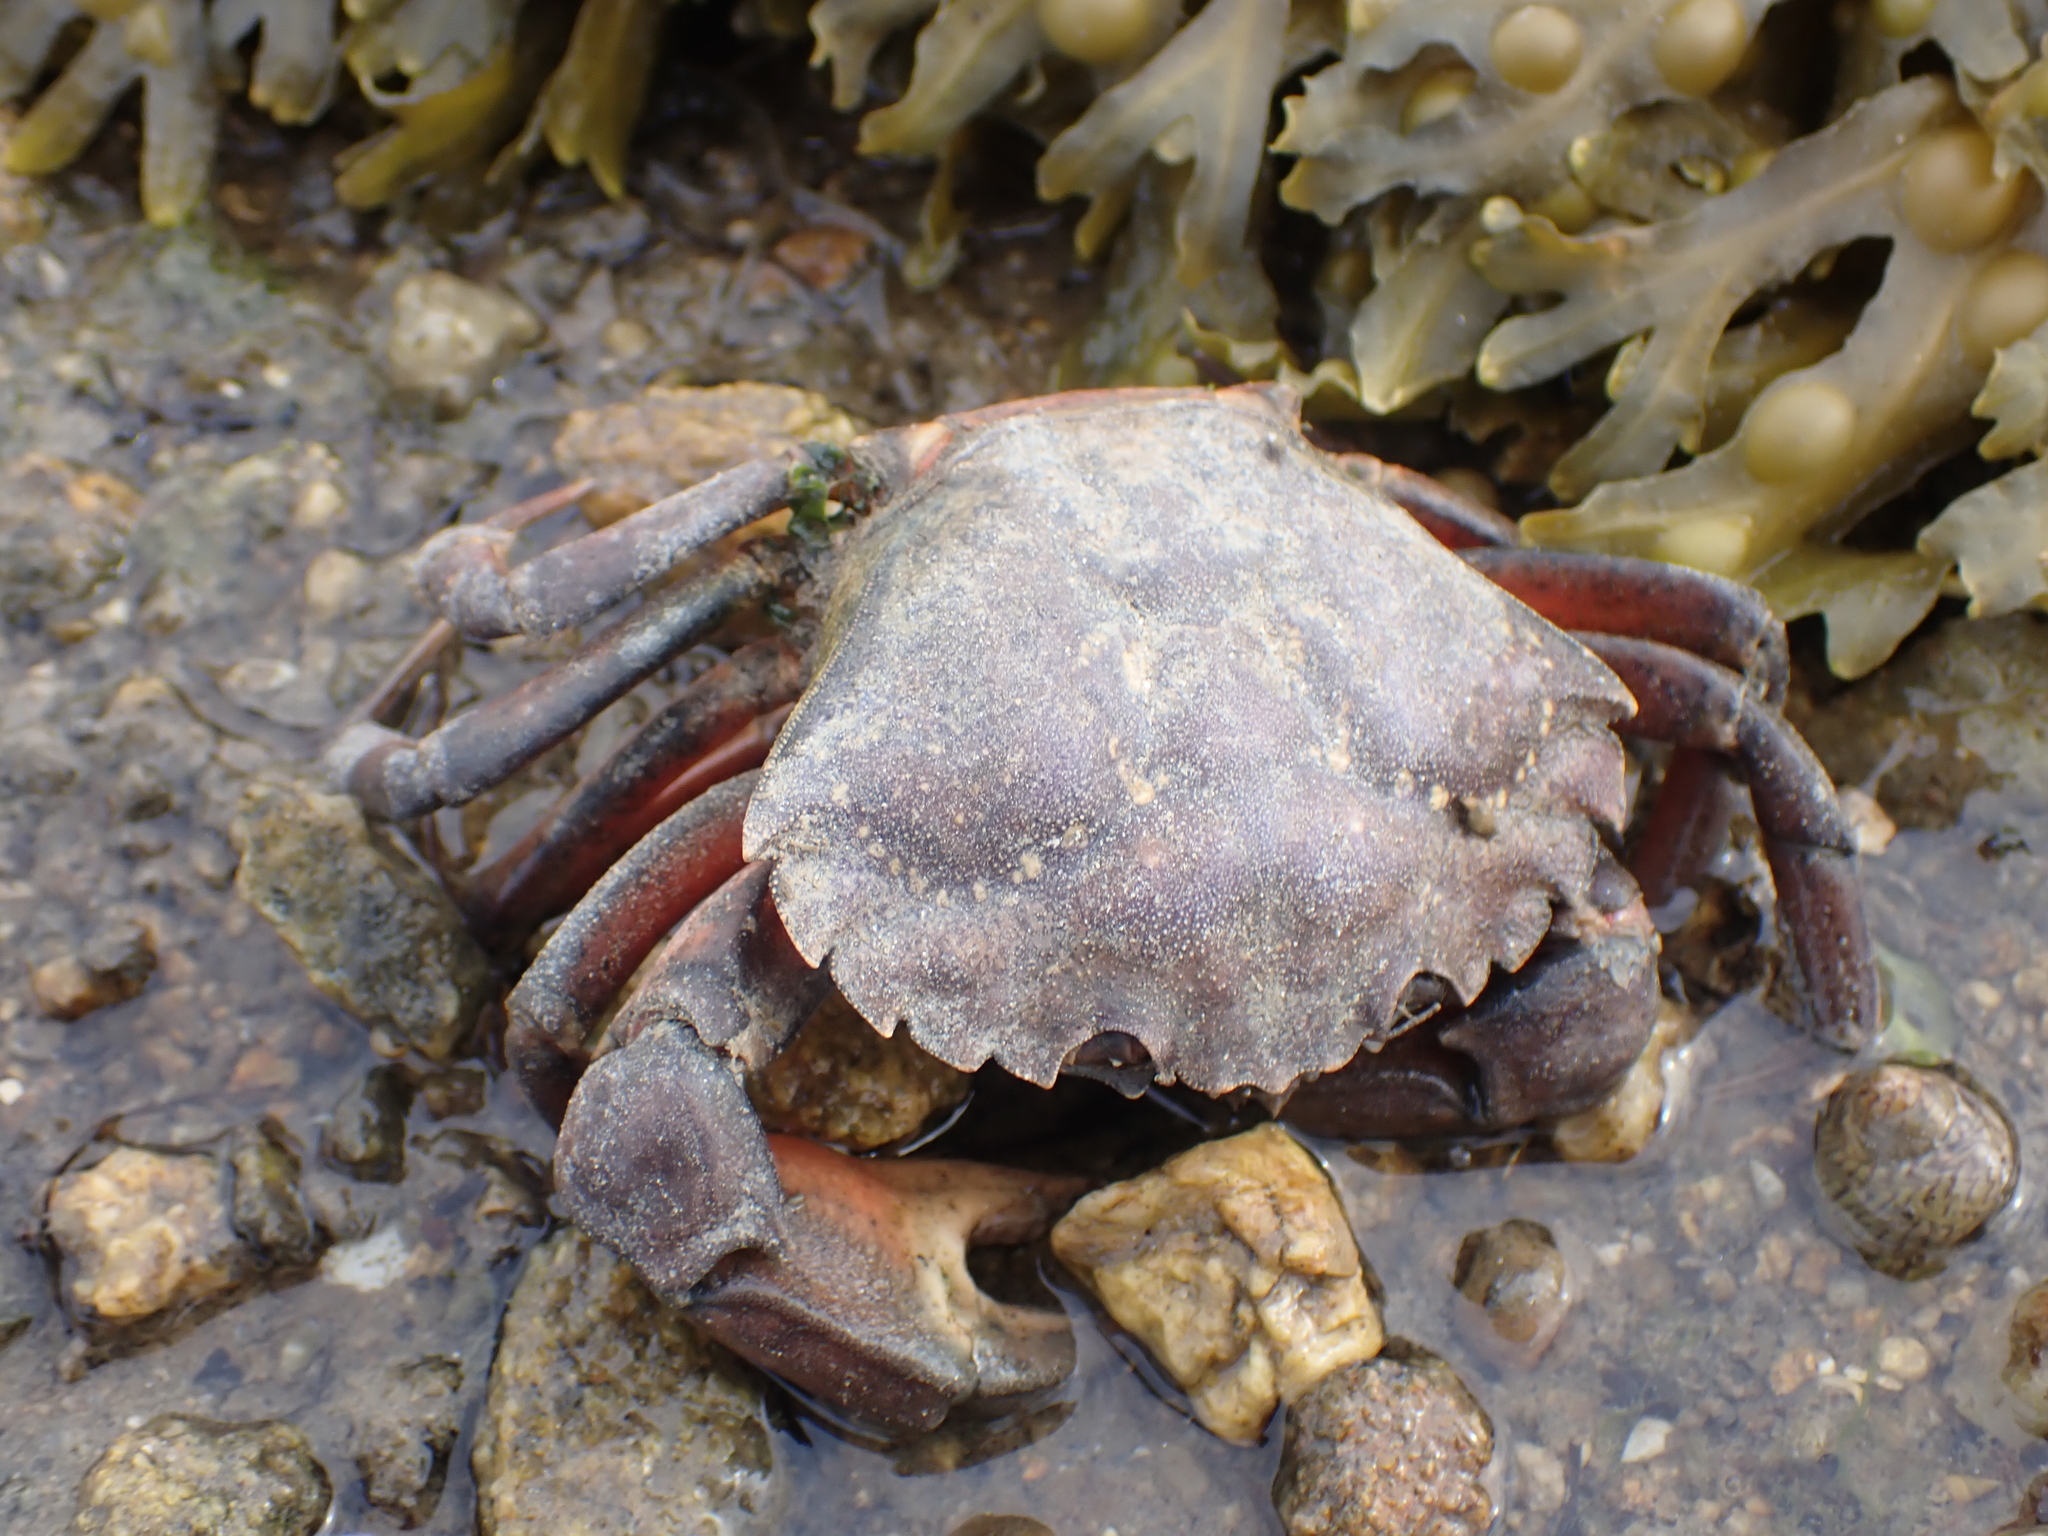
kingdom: Animalia
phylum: Arthropoda
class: Malacostraca
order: Decapoda
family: Carcinidae
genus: Carcinus
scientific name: Carcinus maenas
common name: European green crab
